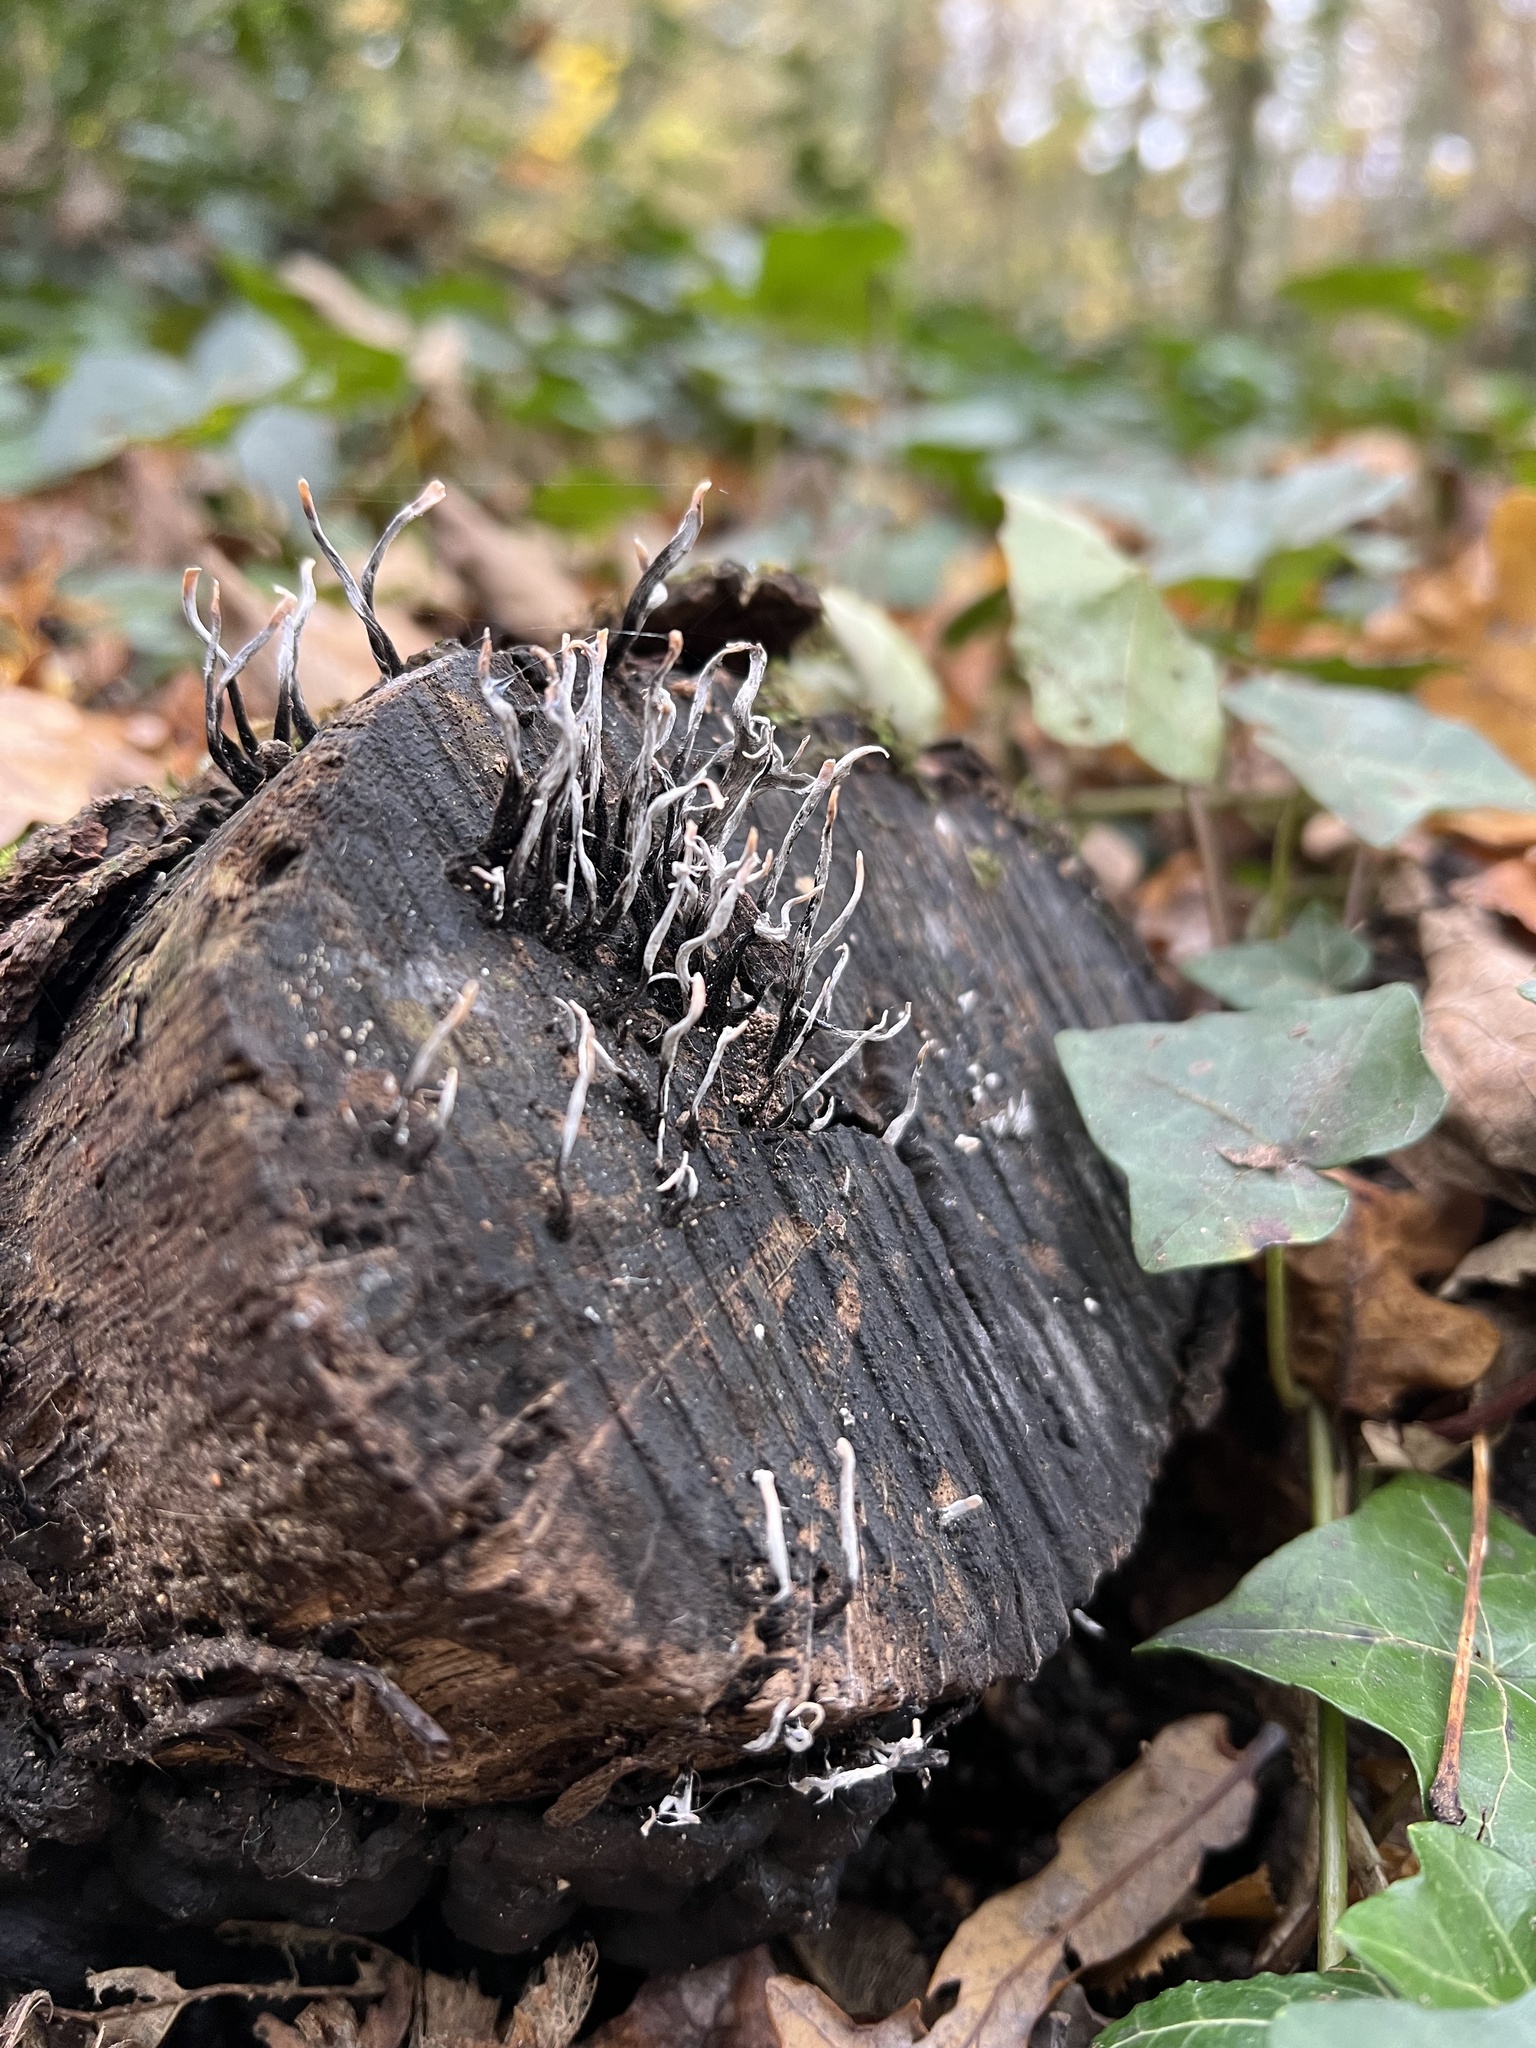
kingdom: Fungi
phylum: Ascomycota
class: Sordariomycetes
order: Xylariales
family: Xylariaceae
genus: Xylaria
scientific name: Xylaria hypoxylon
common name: Candle-snuff fungus
